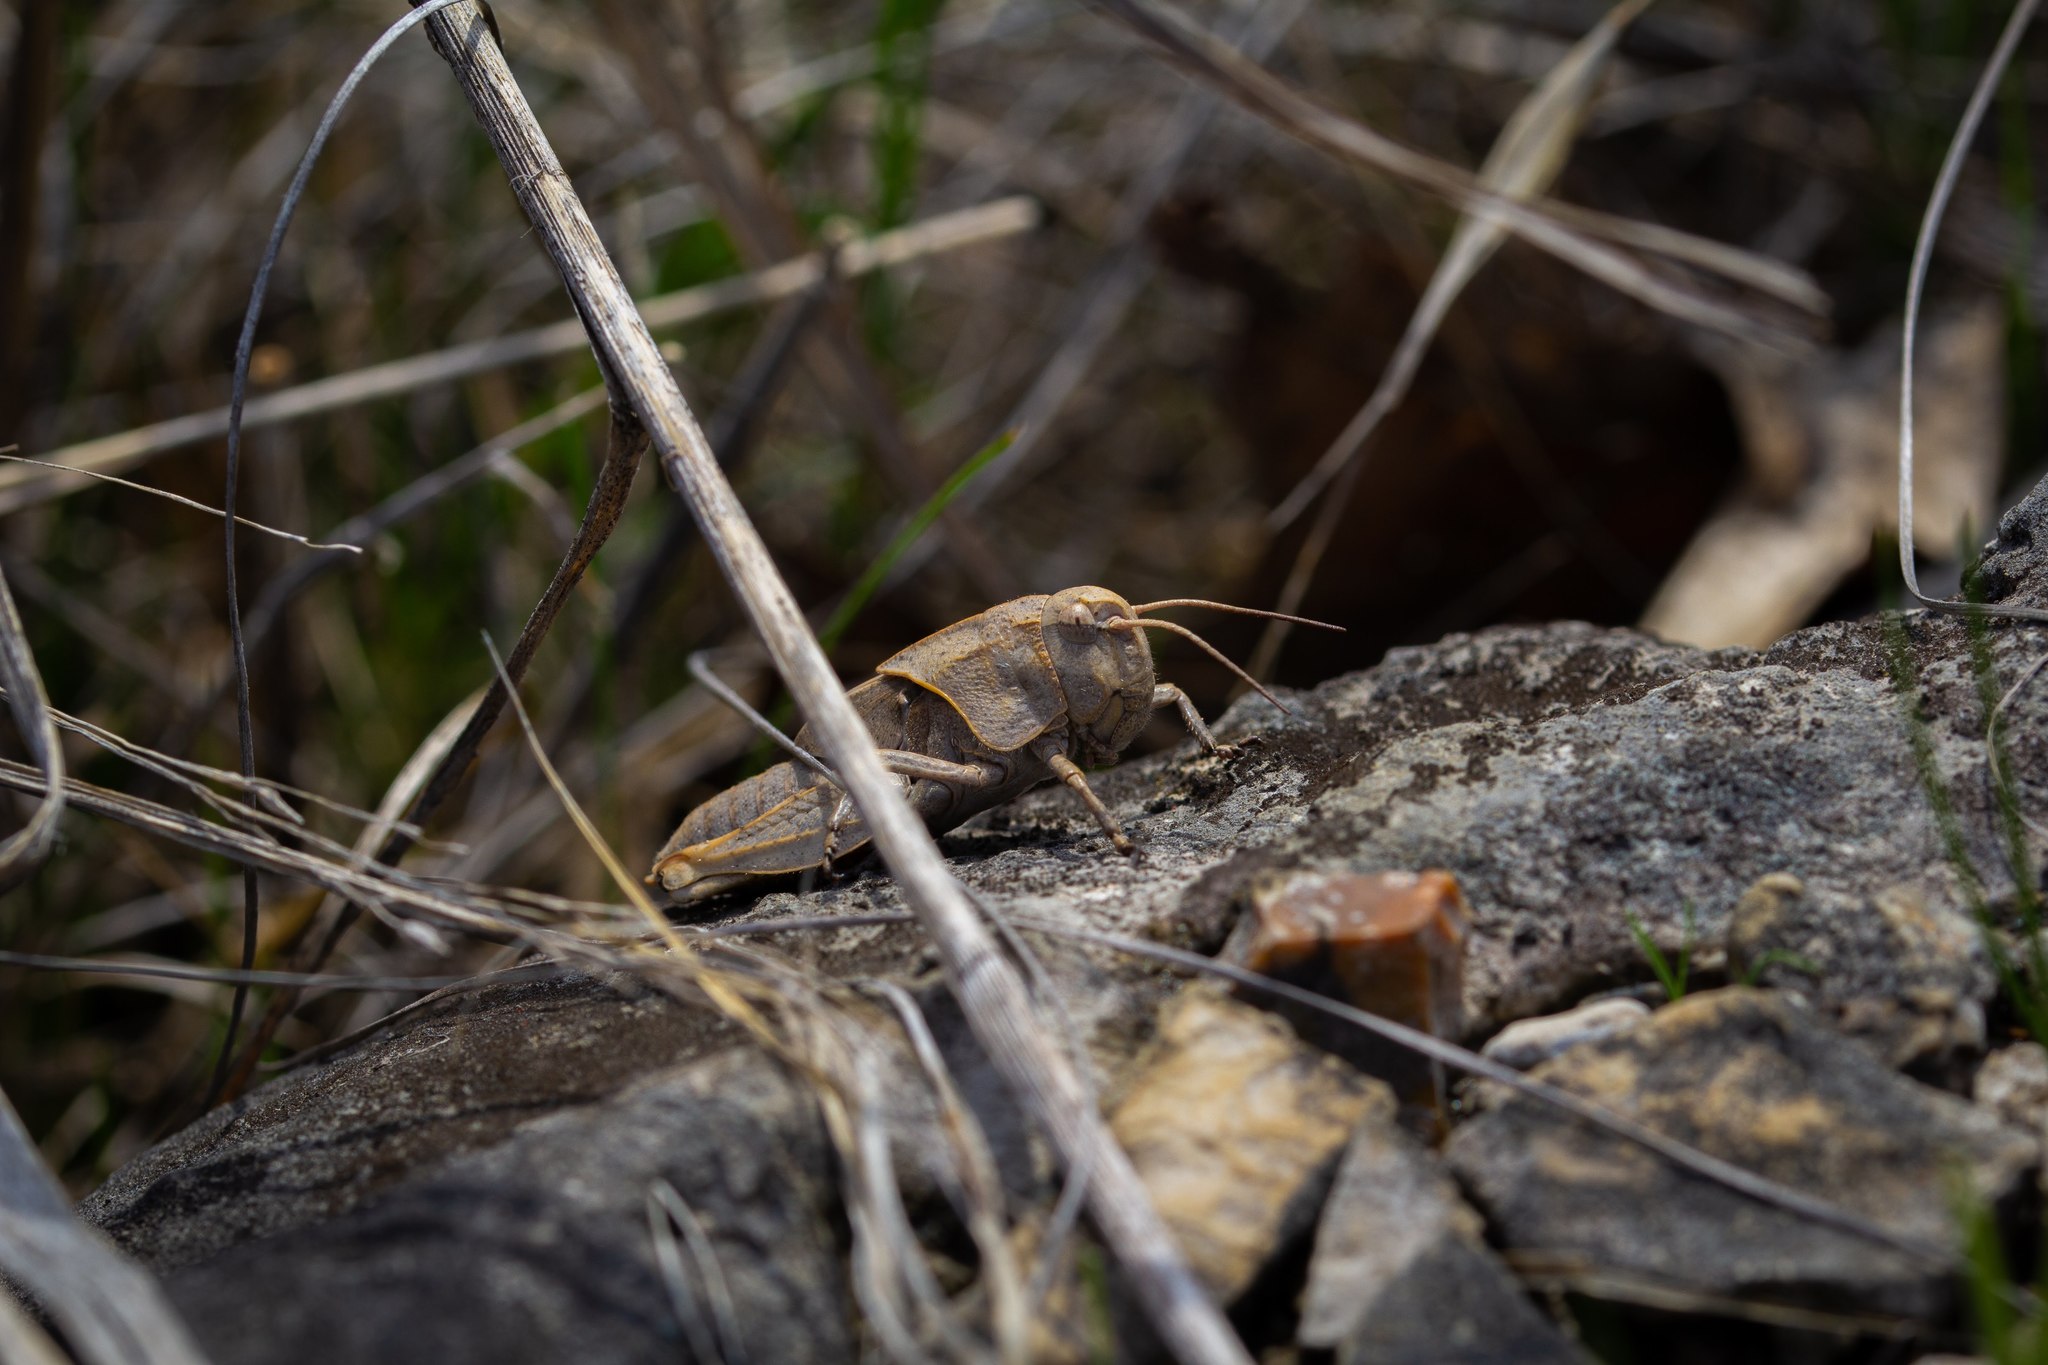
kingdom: Animalia
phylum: Arthropoda
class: Insecta
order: Orthoptera
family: Acrididae
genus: Pardalophora
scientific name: Pardalophora apiculata
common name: Coral-winged locust
